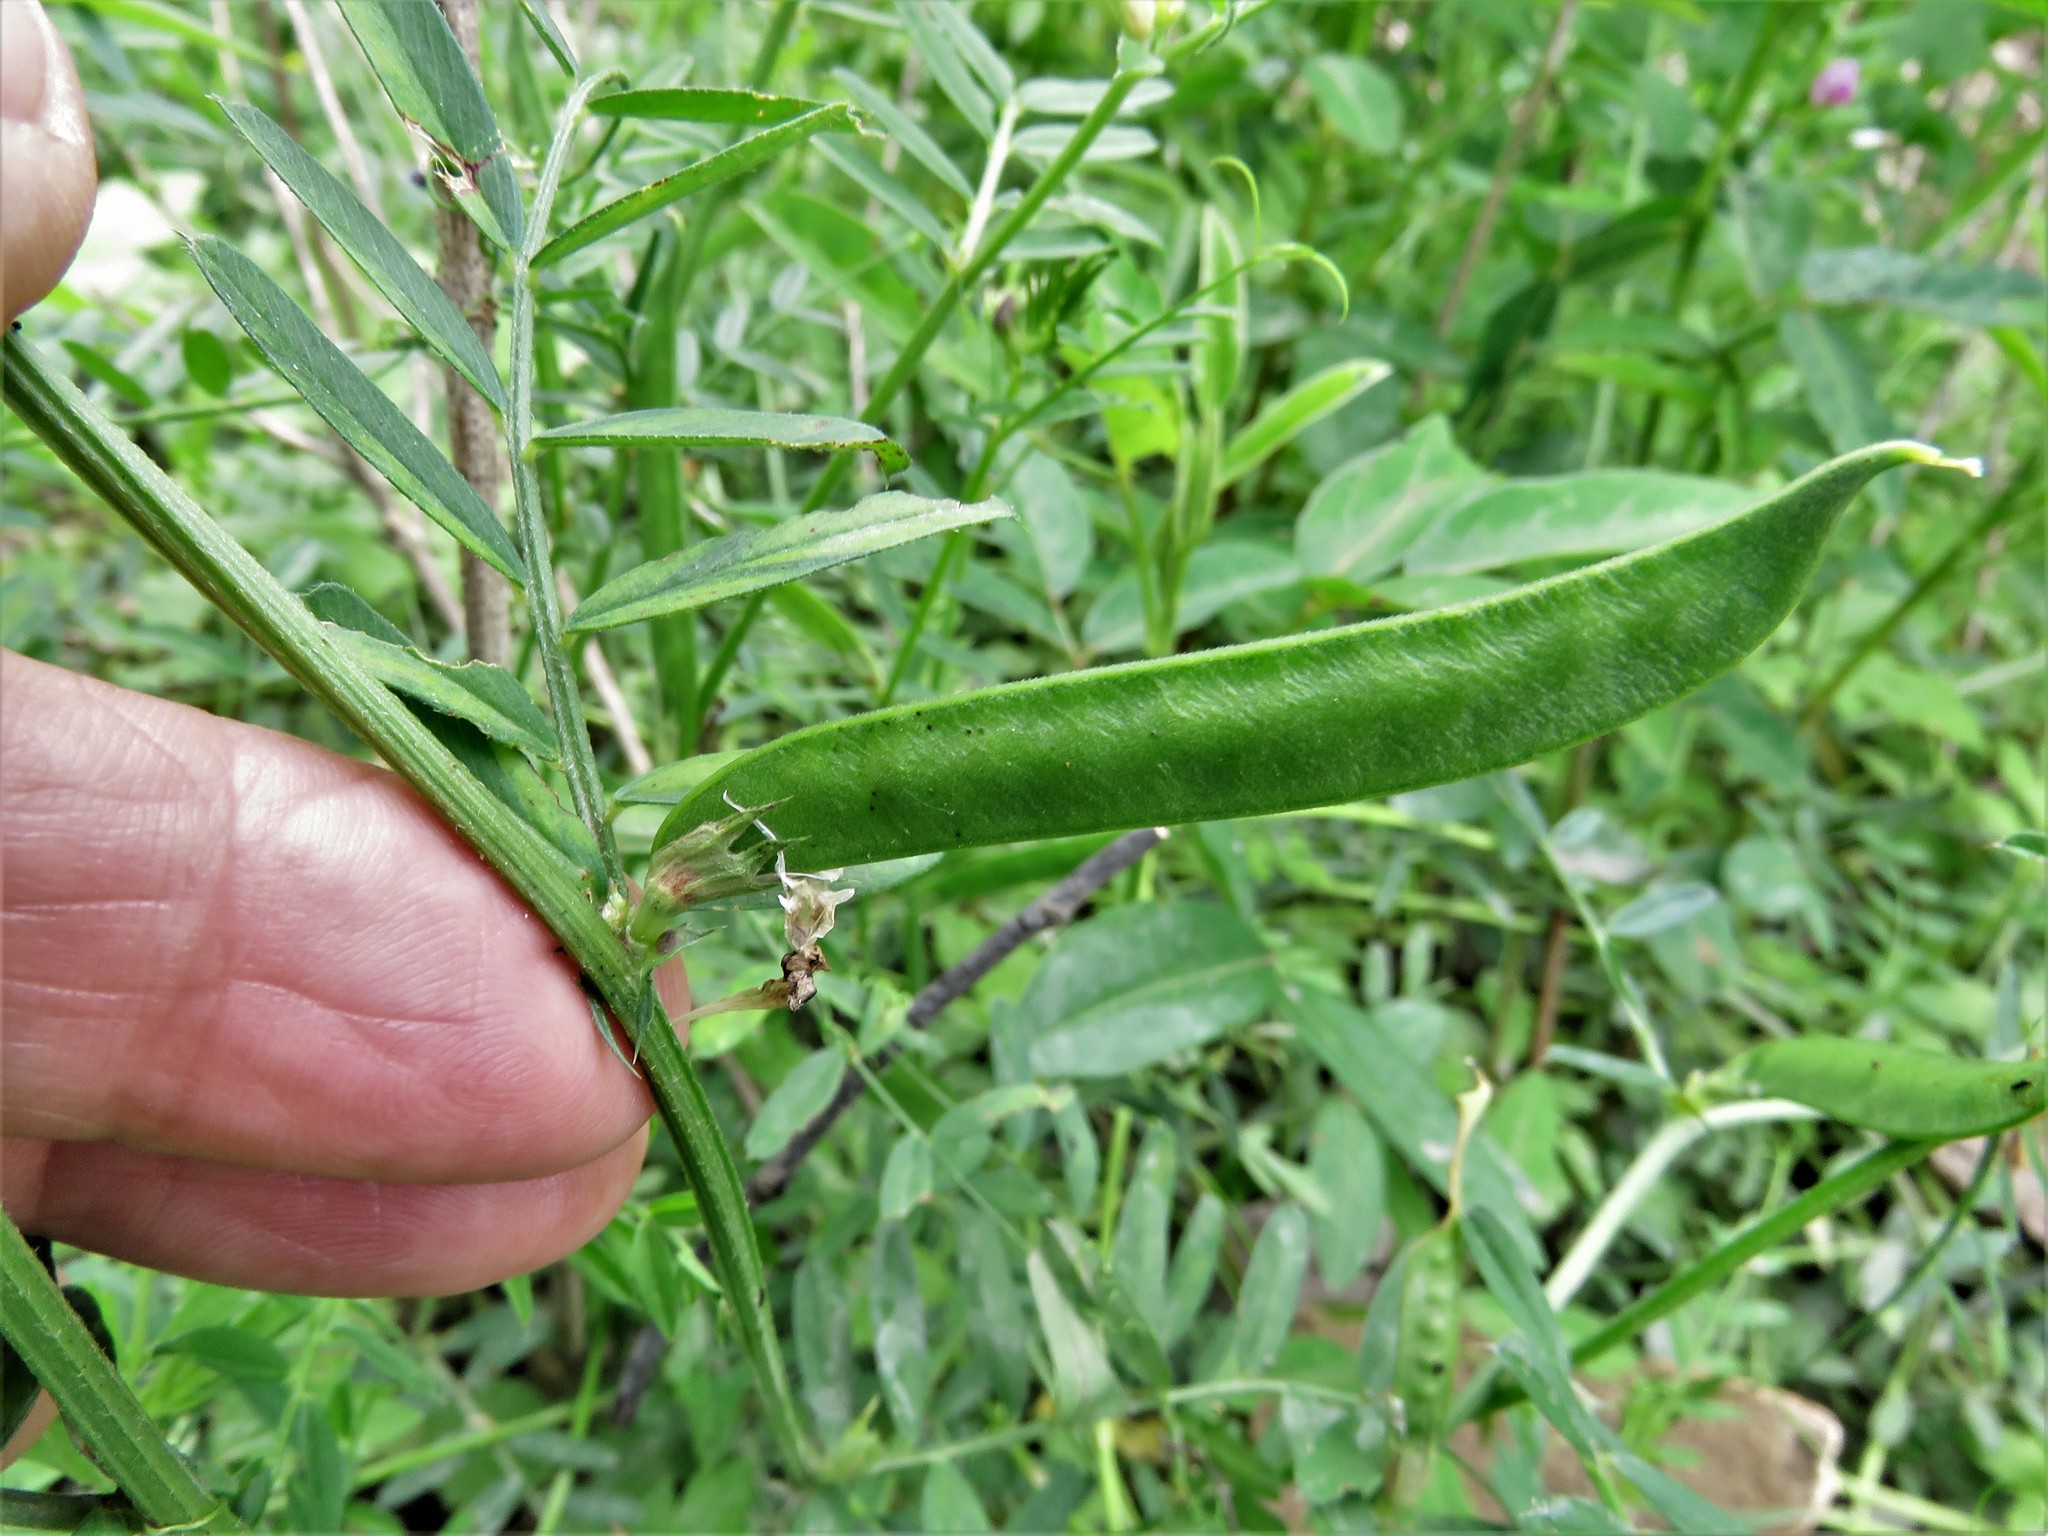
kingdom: Plantae
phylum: Tracheophyta
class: Magnoliopsida
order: Fabales
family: Fabaceae
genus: Vicia
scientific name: Vicia sativa
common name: Garden vetch
